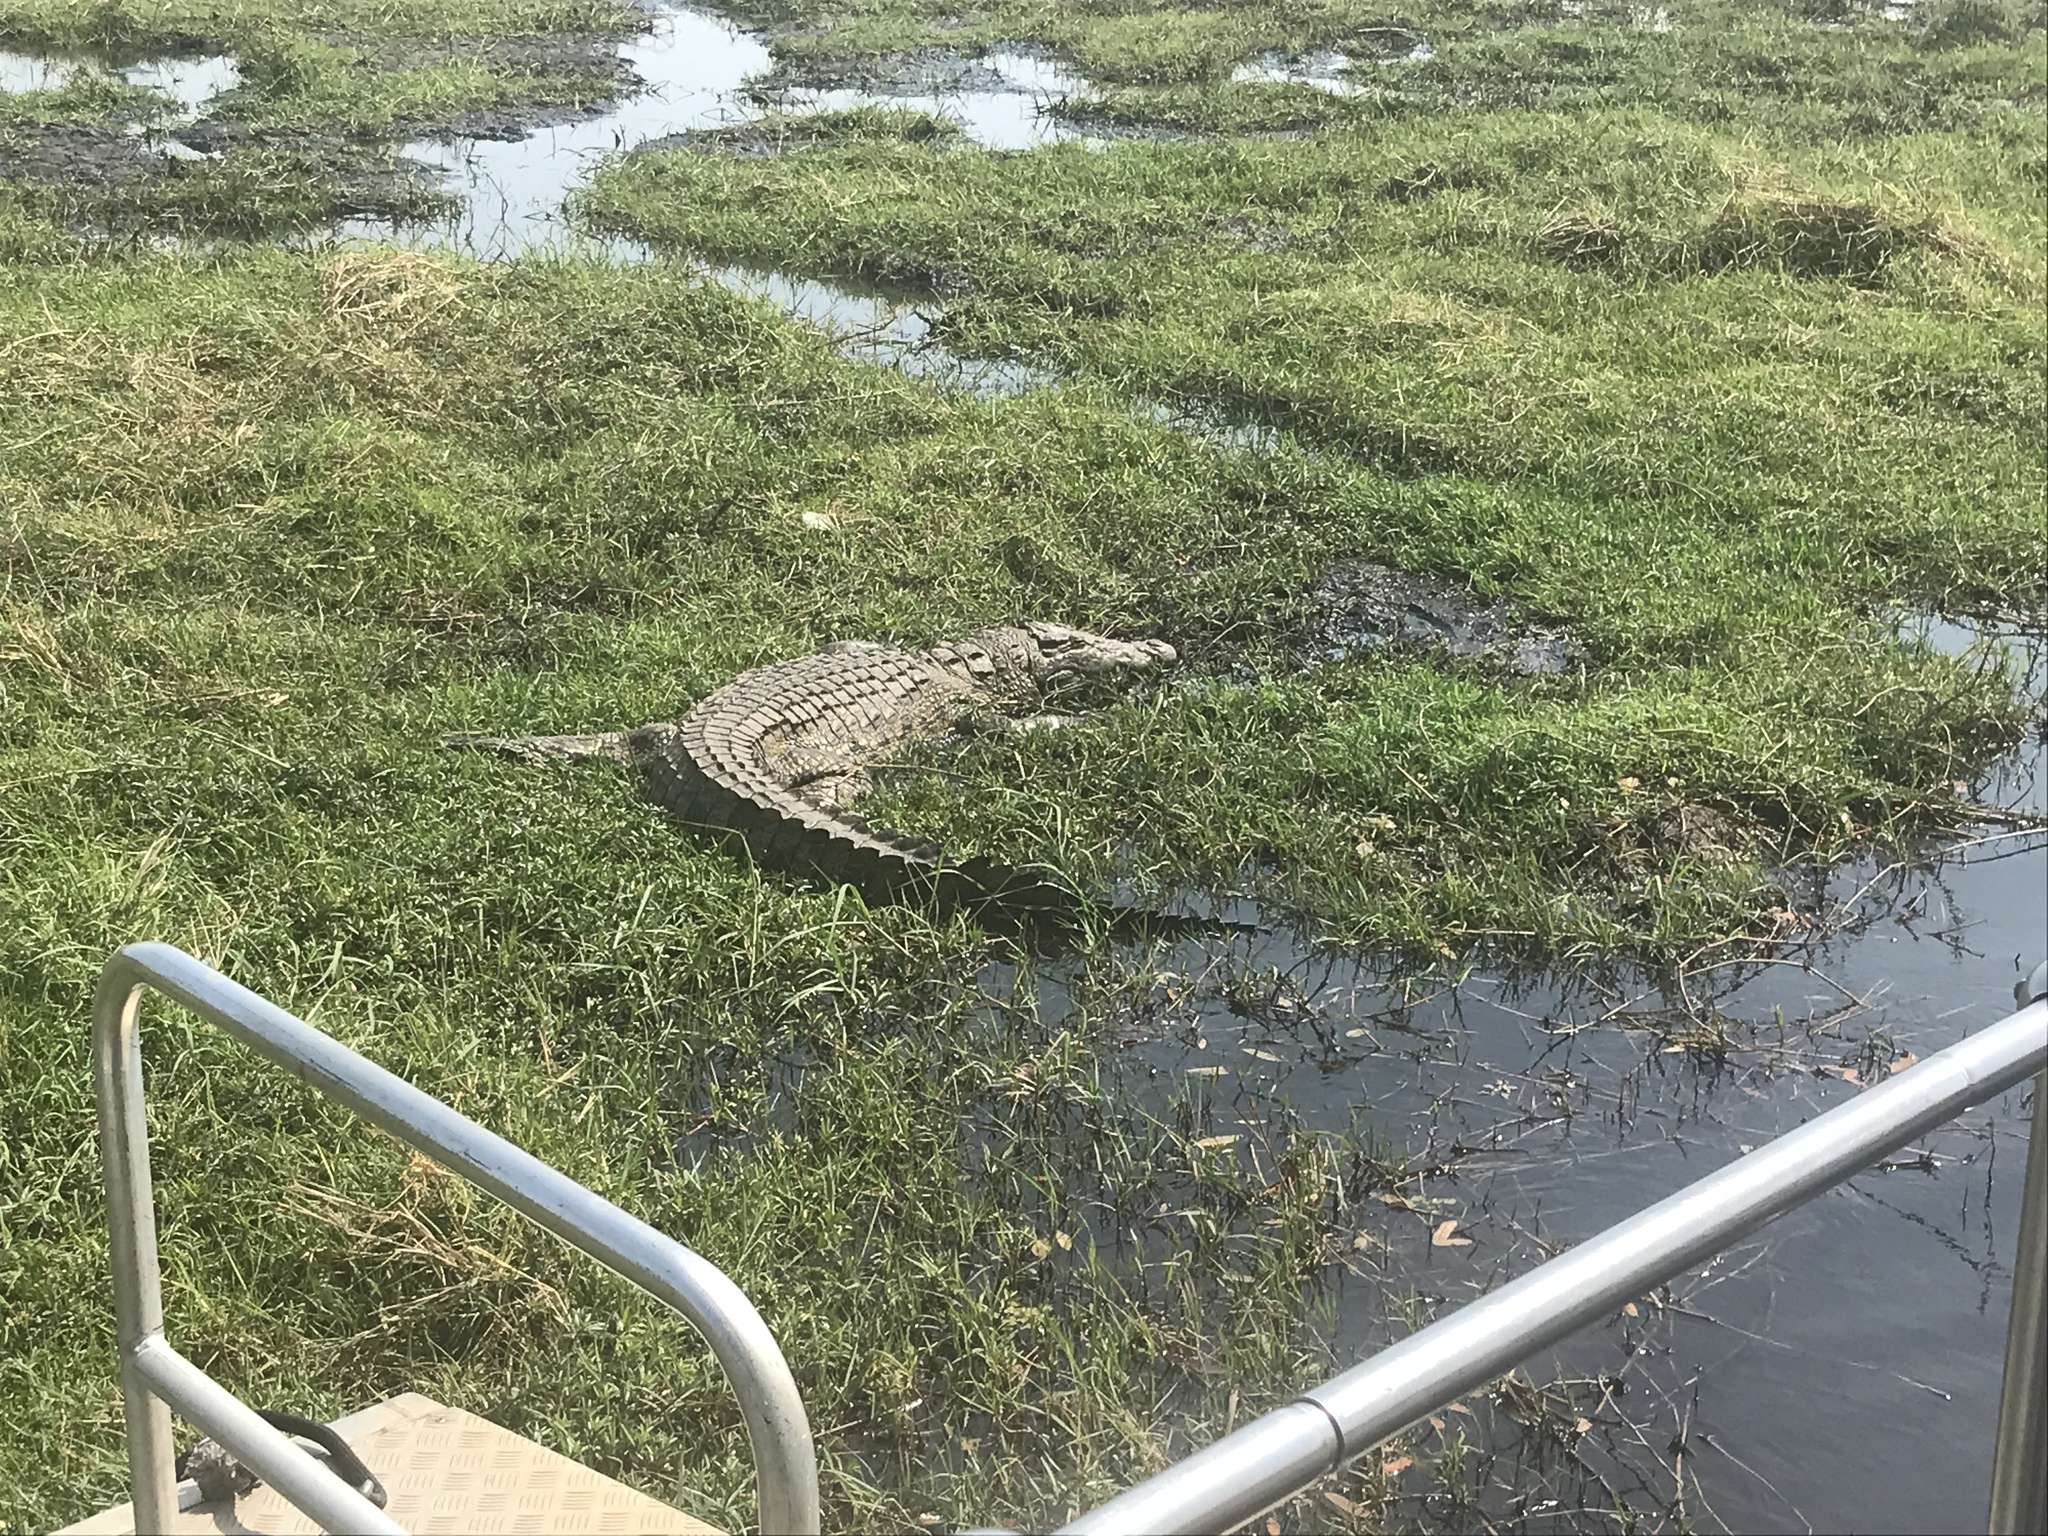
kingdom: Animalia
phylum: Chordata
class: Crocodylia
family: Crocodylidae
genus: Crocodylus
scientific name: Crocodylus niloticus
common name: Nile crocodile
